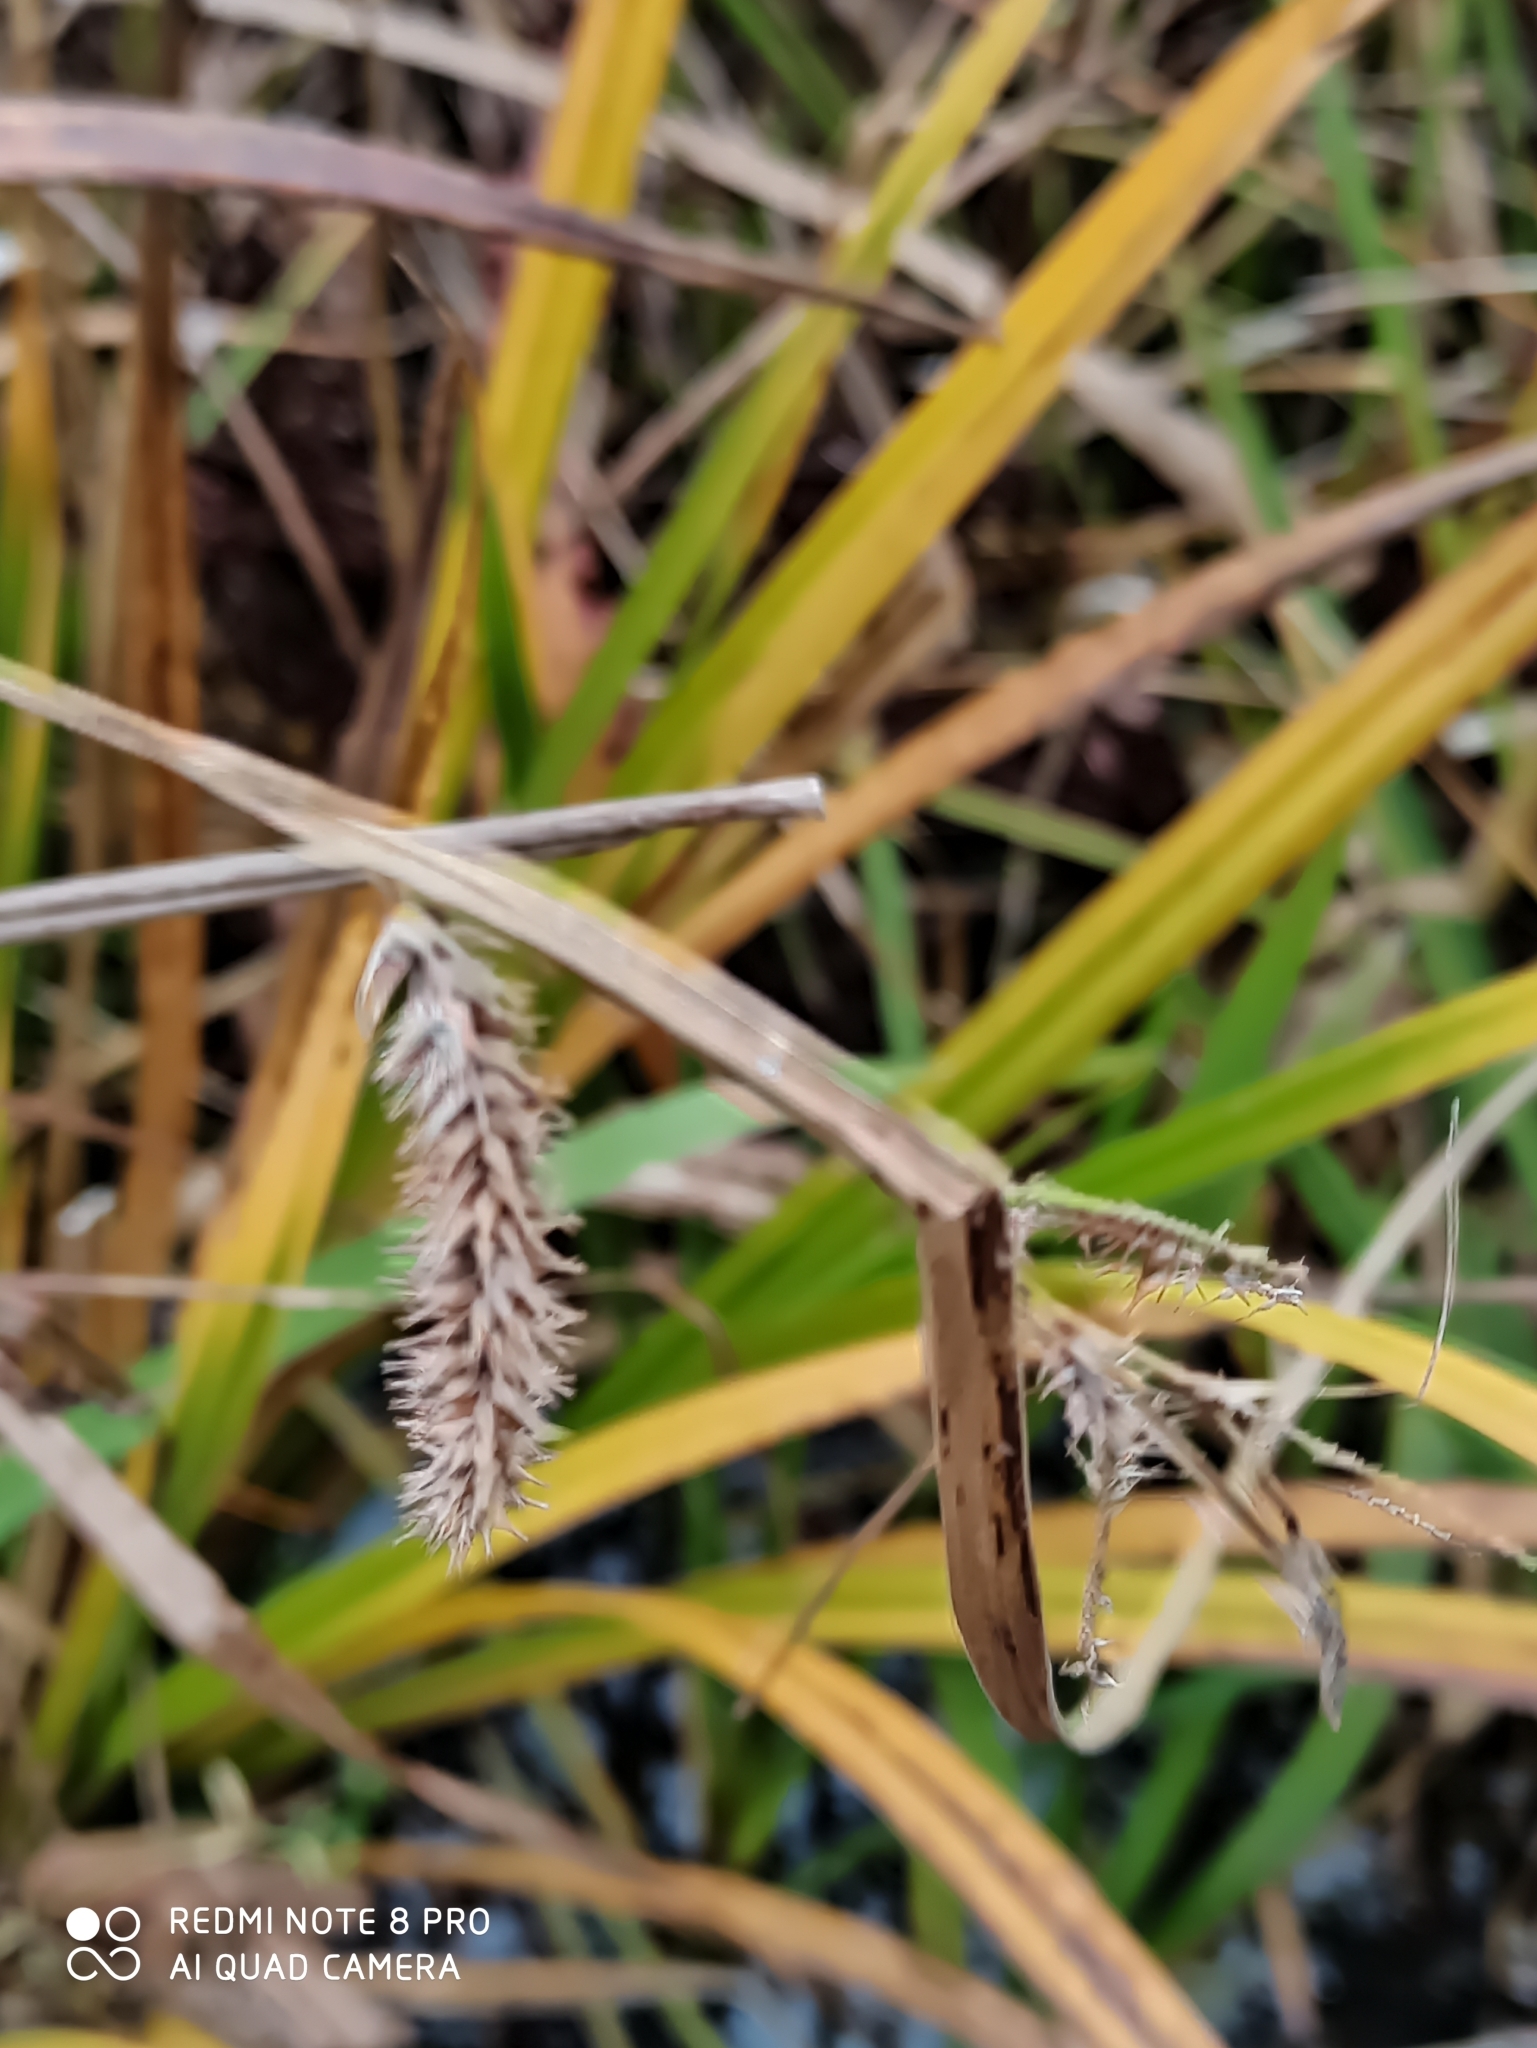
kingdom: Plantae
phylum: Tracheophyta
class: Liliopsida
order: Poales
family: Cyperaceae
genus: Carex
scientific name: Carex pseudocyperus
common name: Cyperus sedge
